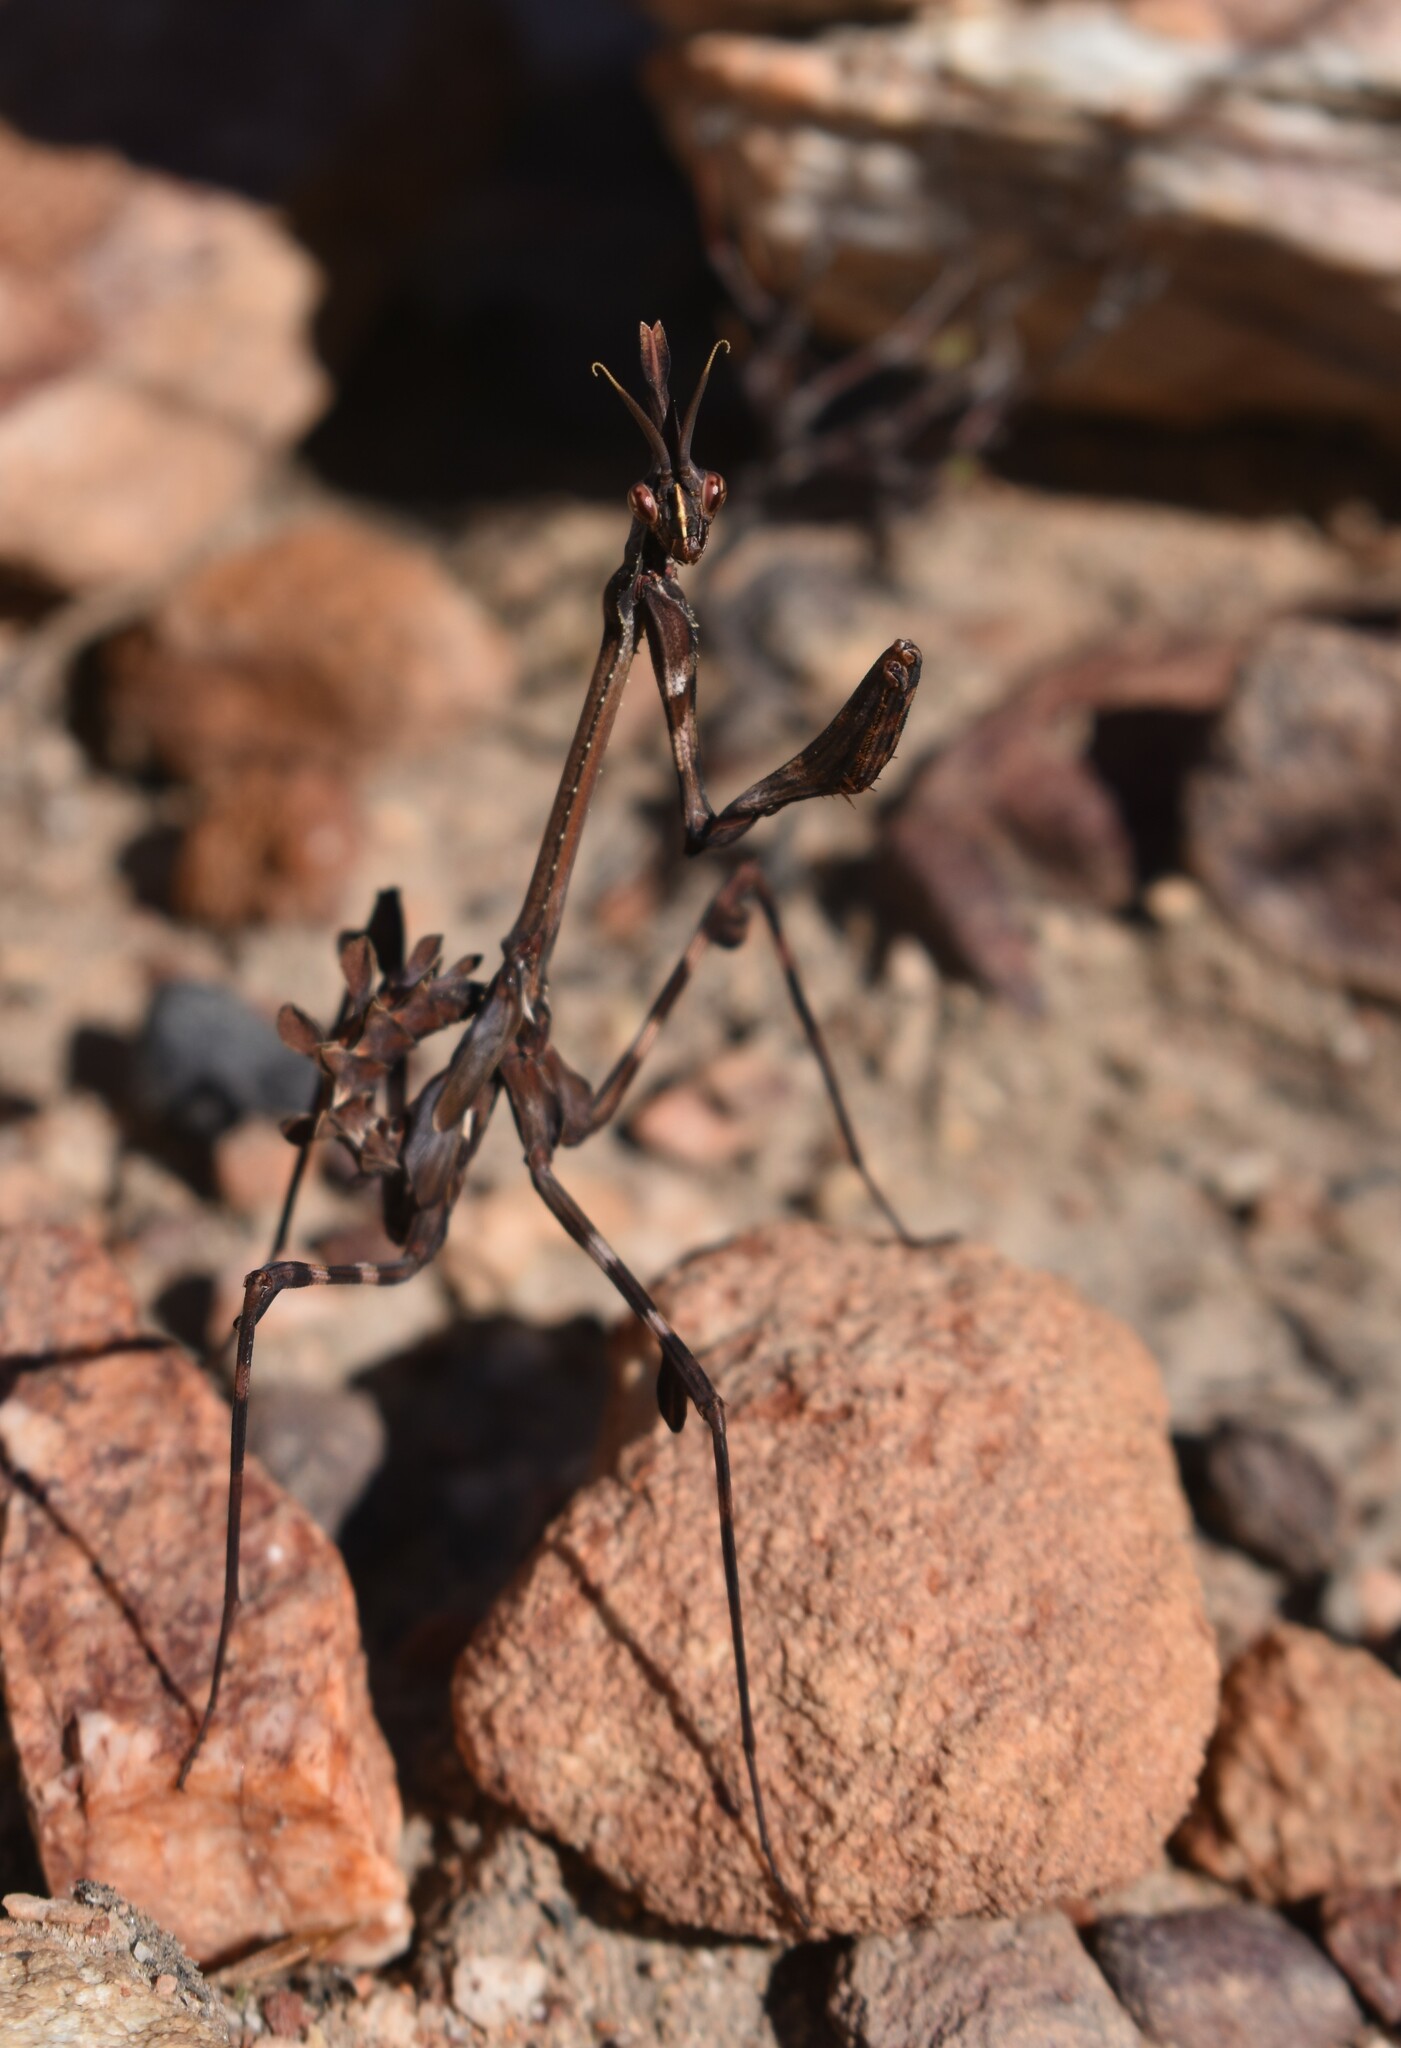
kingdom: Animalia
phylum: Arthropoda
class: Insecta
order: Mantodea
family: Empusidae
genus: Empusa
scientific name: Empusa binotata
